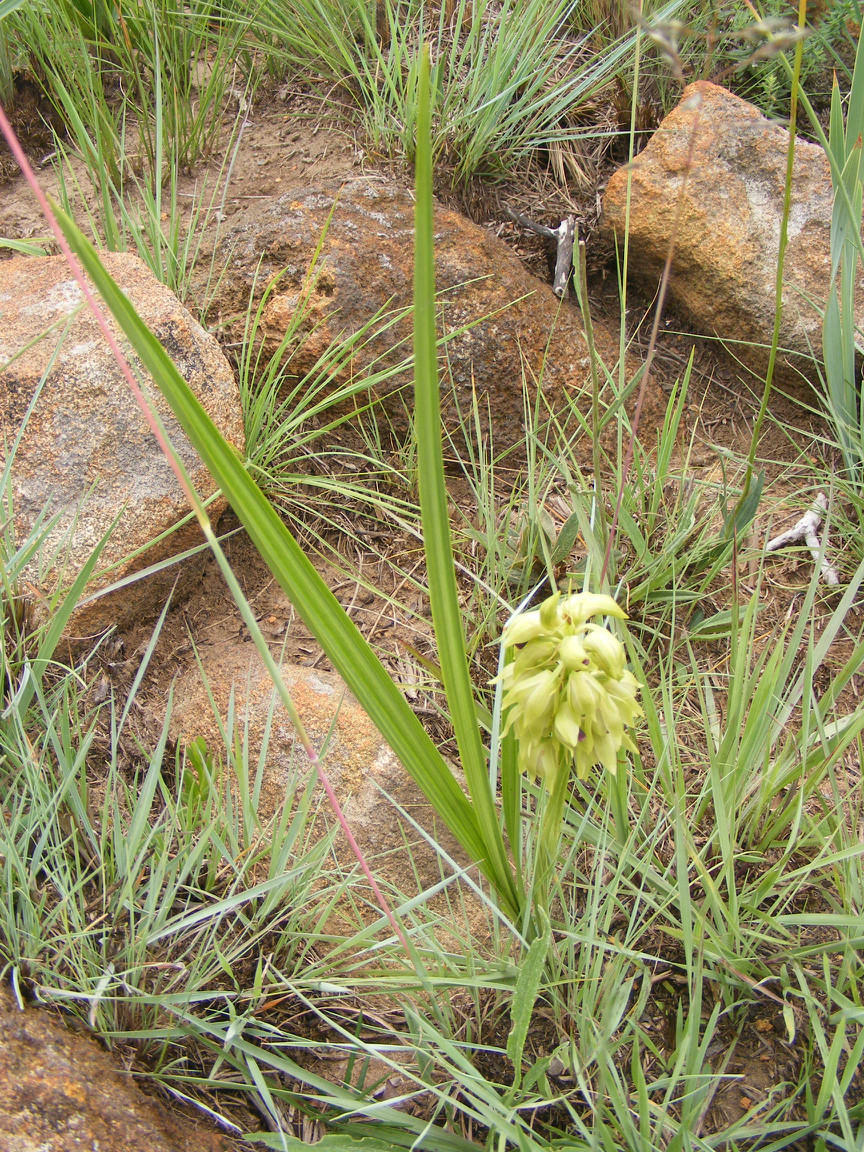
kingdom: Plantae
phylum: Tracheophyta
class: Liliopsida
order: Asparagales
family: Orchidaceae
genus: Eulophia
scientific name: Eulophia foliosa
